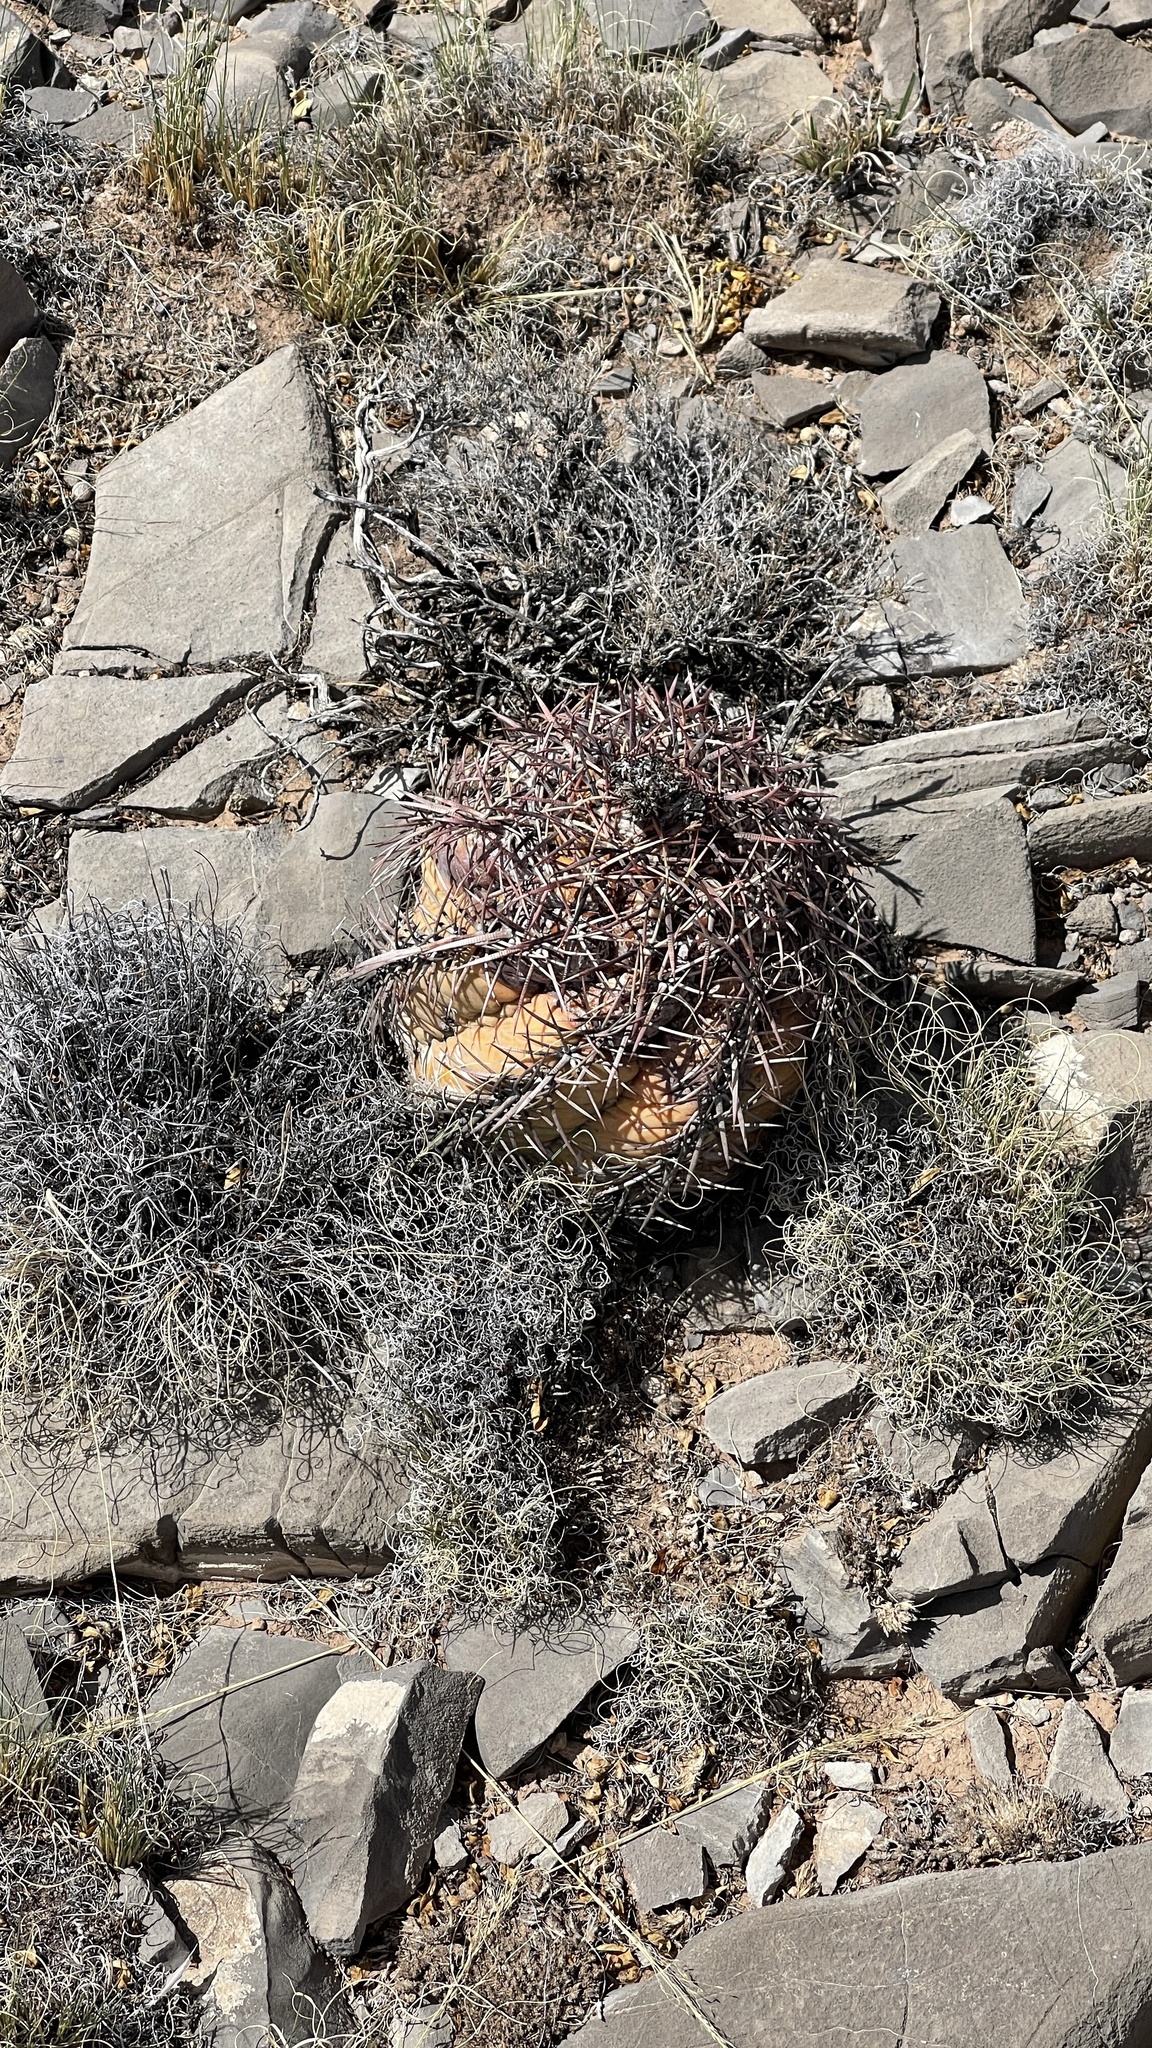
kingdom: Plantae
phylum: Tracheophyta
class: Magnoliopsida
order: Caryophyllales
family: Cactaceae
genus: Echinocactus
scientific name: Echinocactus horizonthalonius
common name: Devilshead
